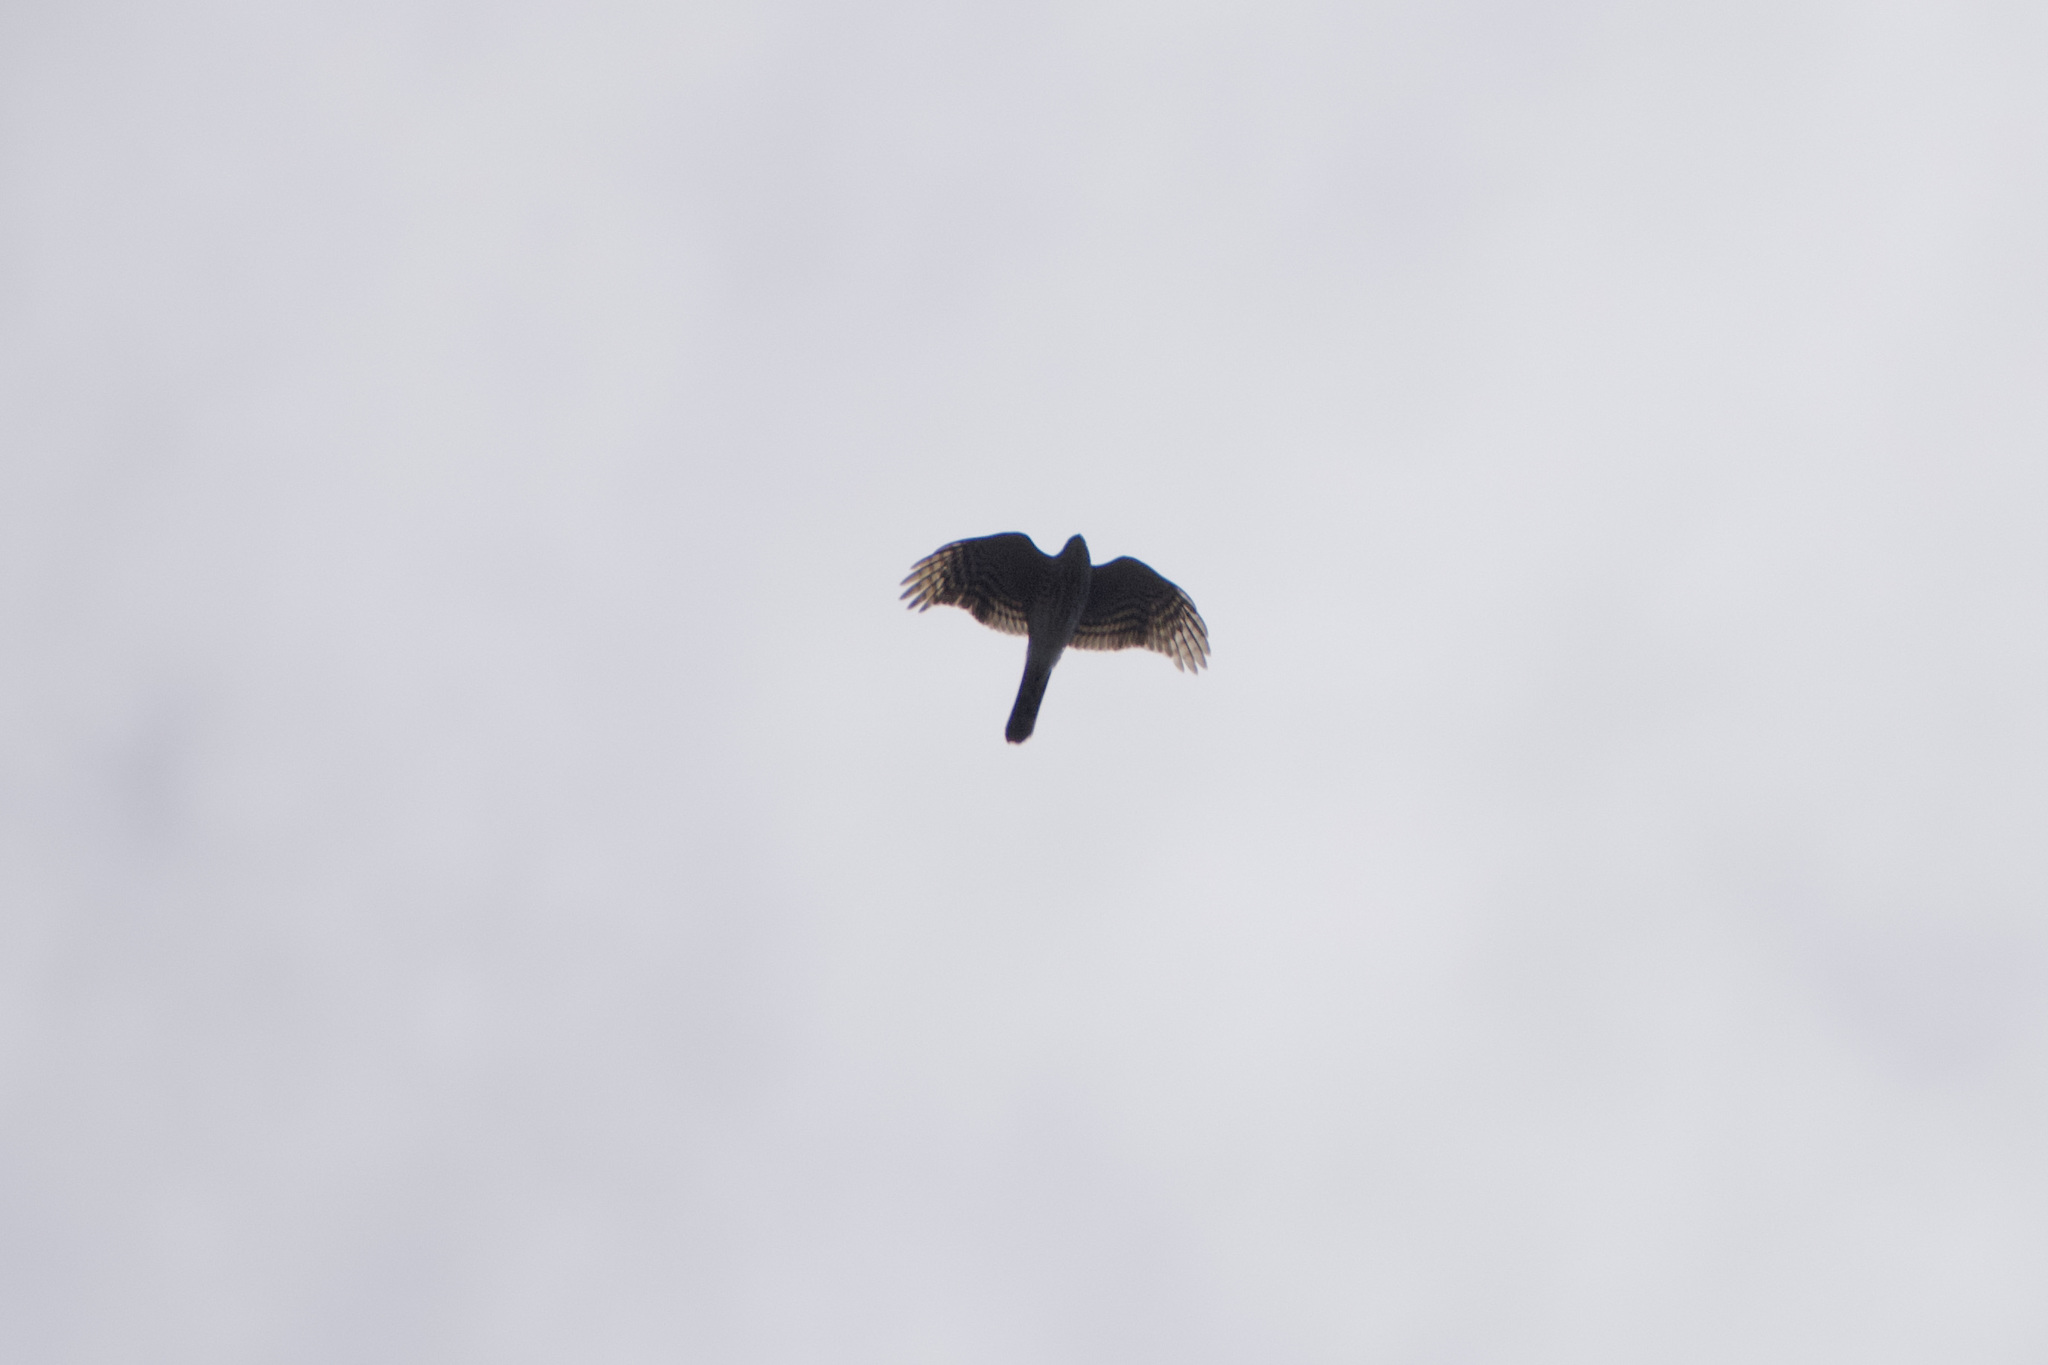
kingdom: Animalia
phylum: Chordata
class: Aves
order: Accipitriformes
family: Accipitridae
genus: Accipiter
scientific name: Accipiter striatus
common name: Sharp-shinned hawk
